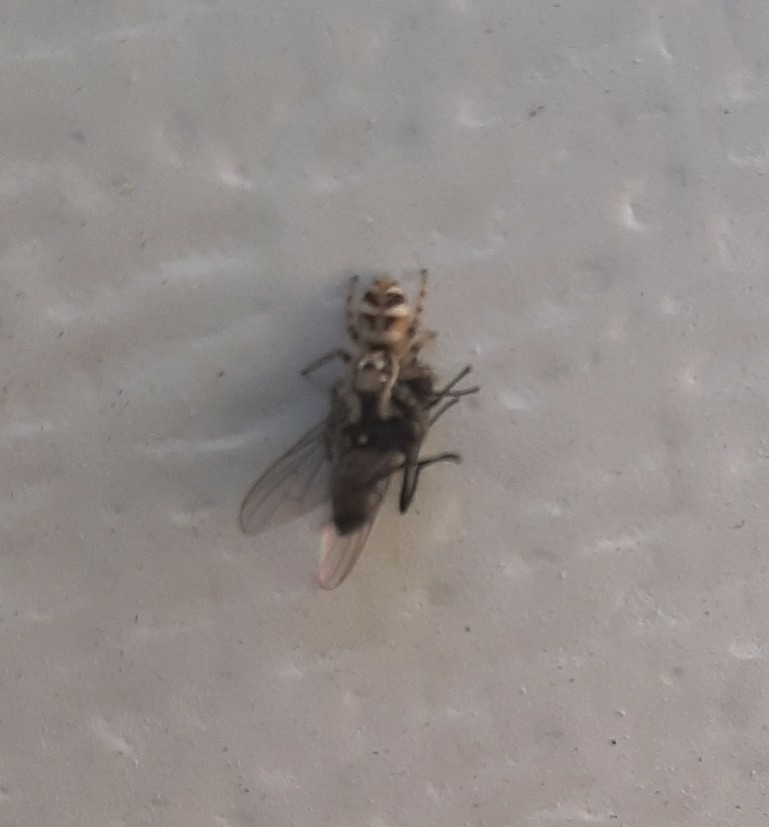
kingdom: Animalia
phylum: Arthropoda
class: Arachnida
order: Araneae
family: Salticidae
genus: Salticus
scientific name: Salticus scenicus
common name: Zebra jumper
